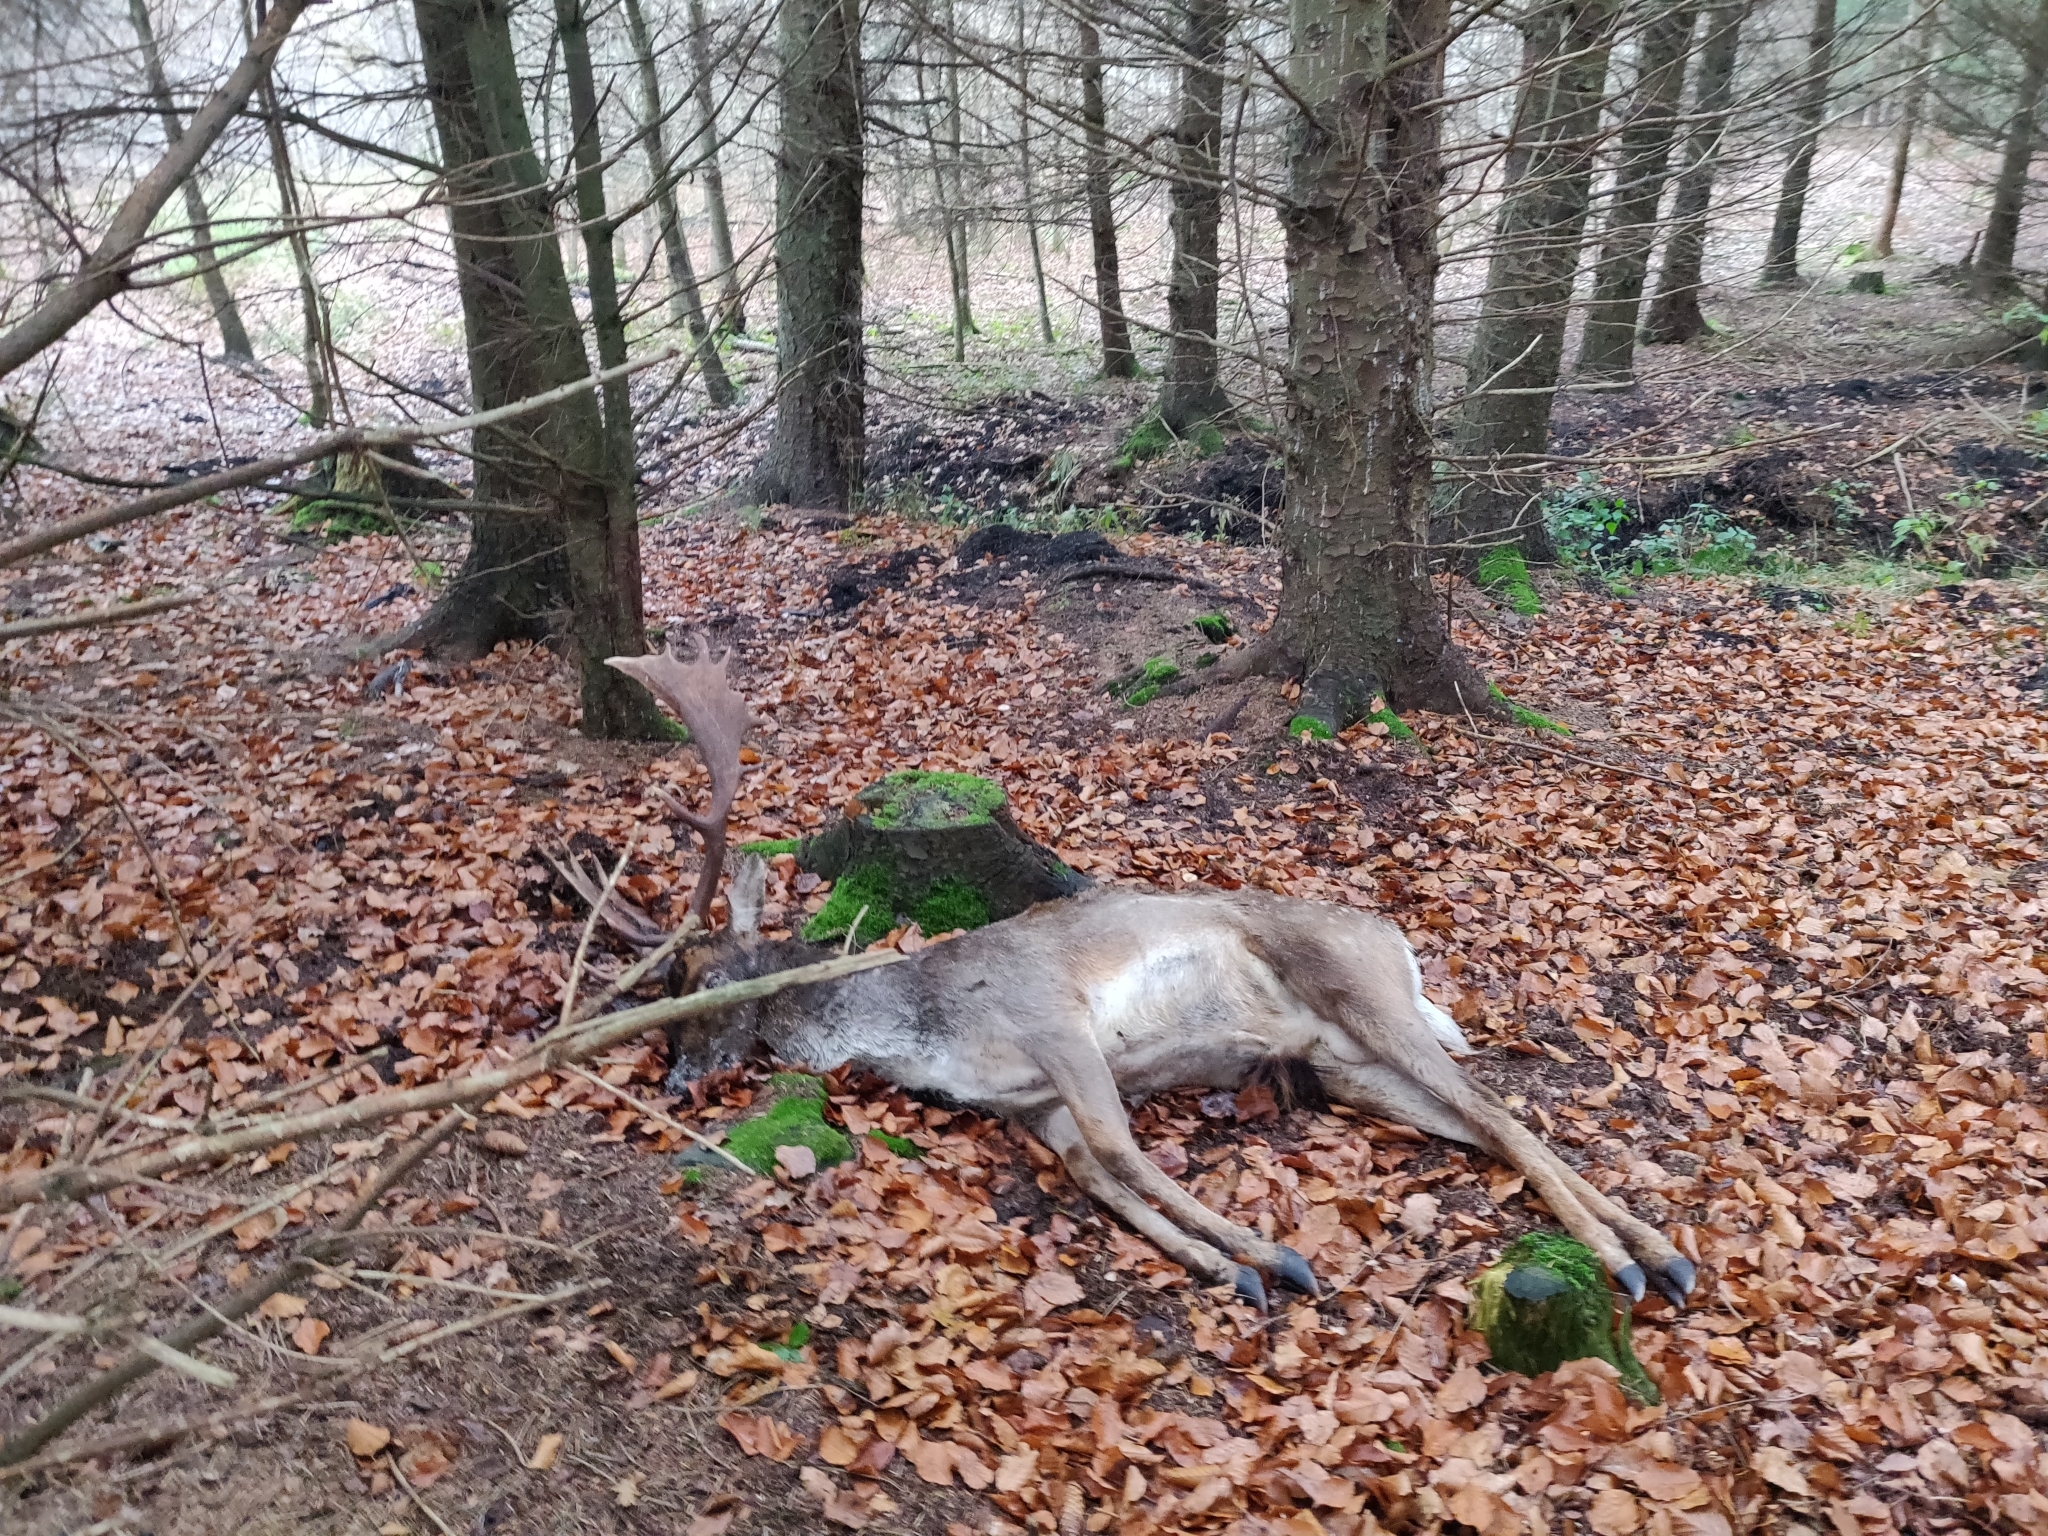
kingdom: Animalia
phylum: Chordata
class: Mammalia
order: Artiodactyla
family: Cervidae
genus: Dama
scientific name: Dama dama
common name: Fallow deer
